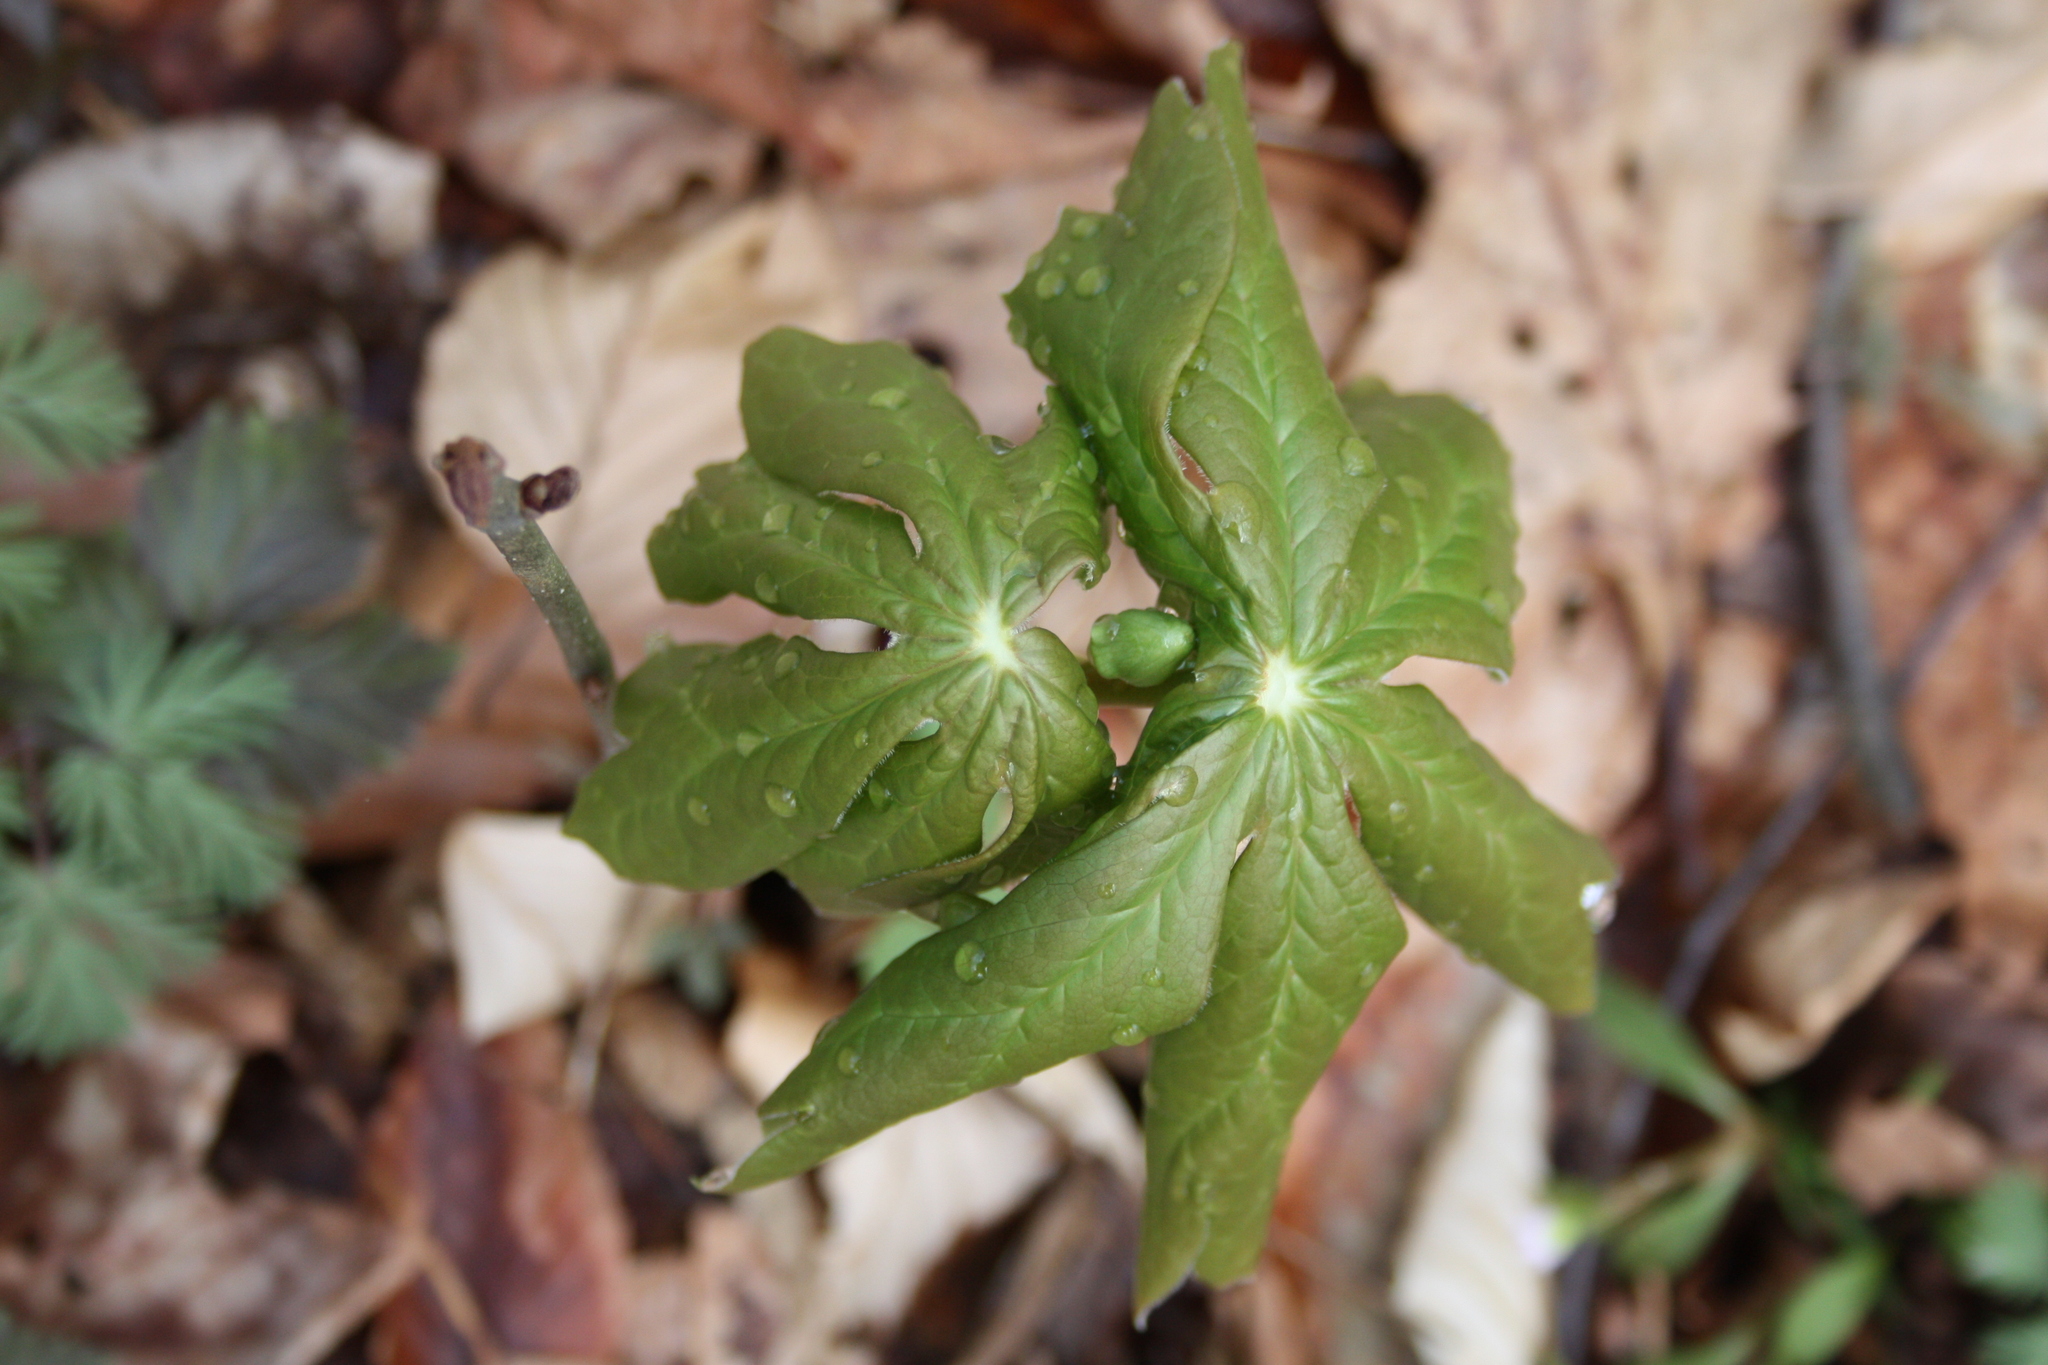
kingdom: Plantae
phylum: Tracheophyta
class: Magnoliopsida
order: Ranunculales
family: Berberidaceae
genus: Podophyllum
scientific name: Podophyllum peltatum
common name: Wild mandrake
